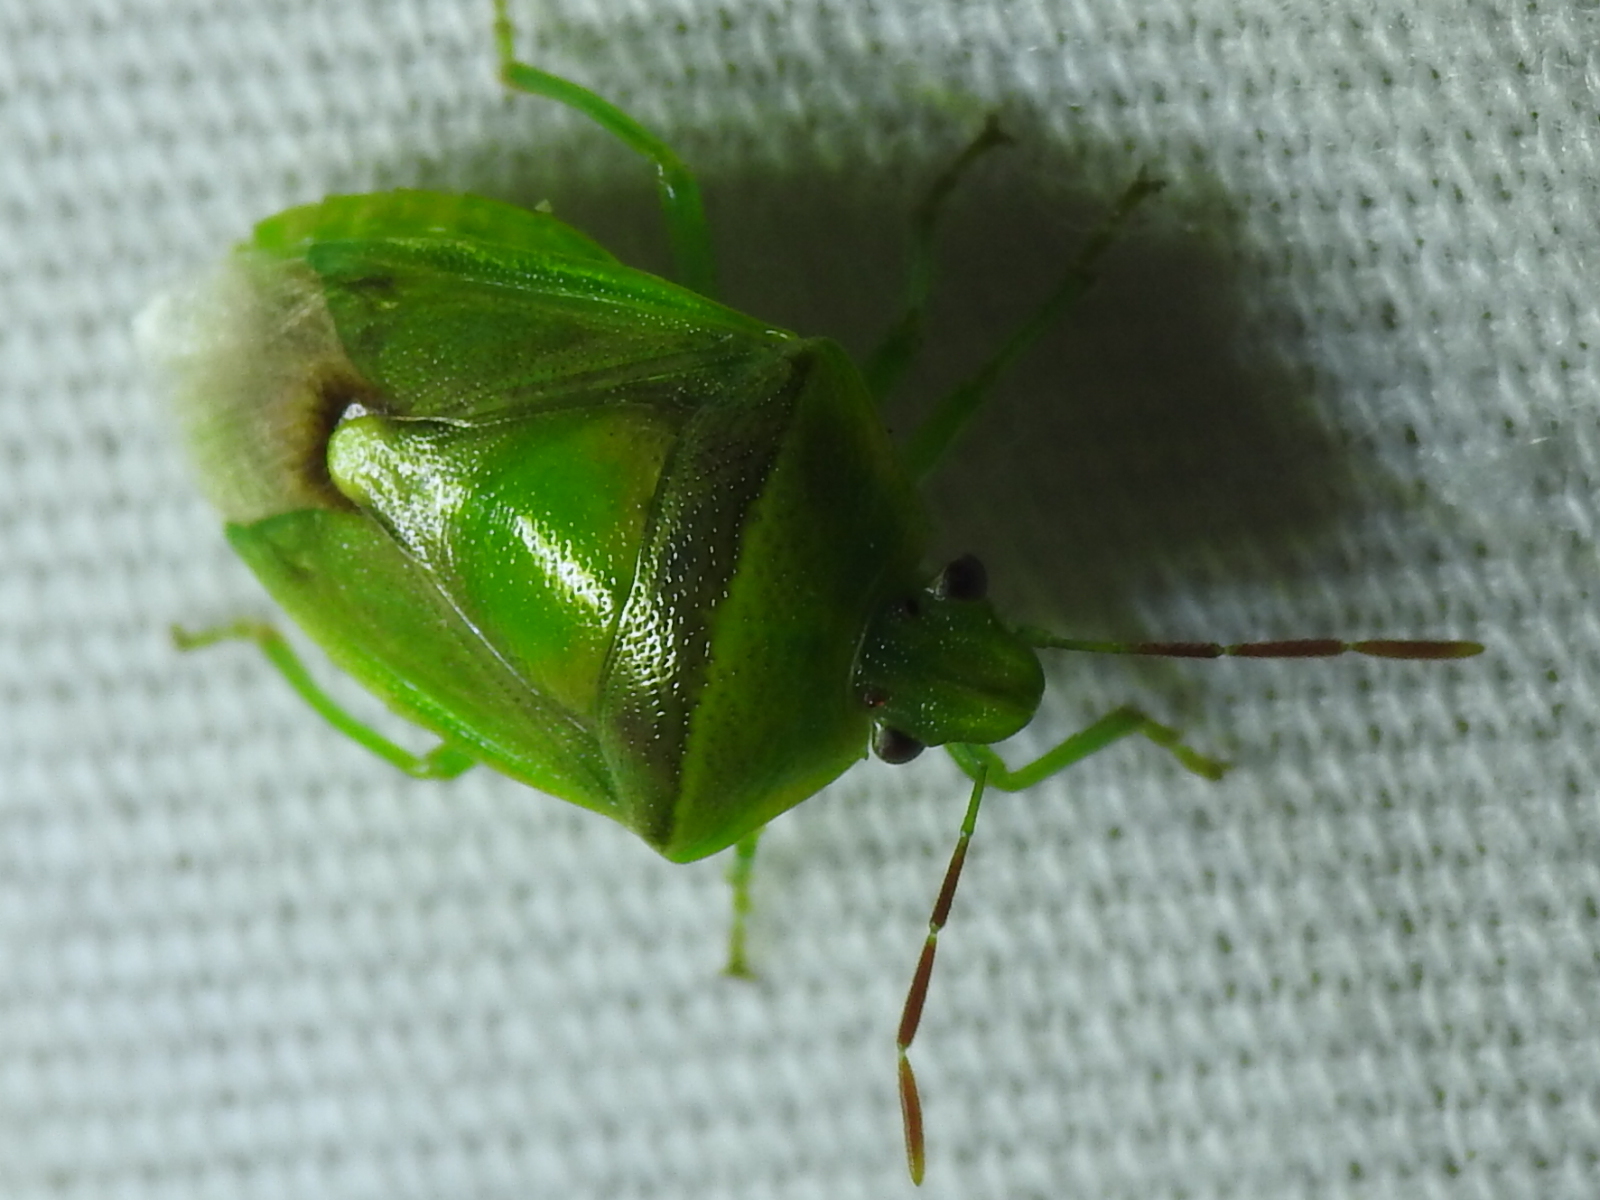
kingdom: Animalia
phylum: Arthropoda
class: Insecta
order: Hemiptera
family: Pentatomidae
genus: Banasa
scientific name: Banasa dimidiata
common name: Green burgundy stink bug
